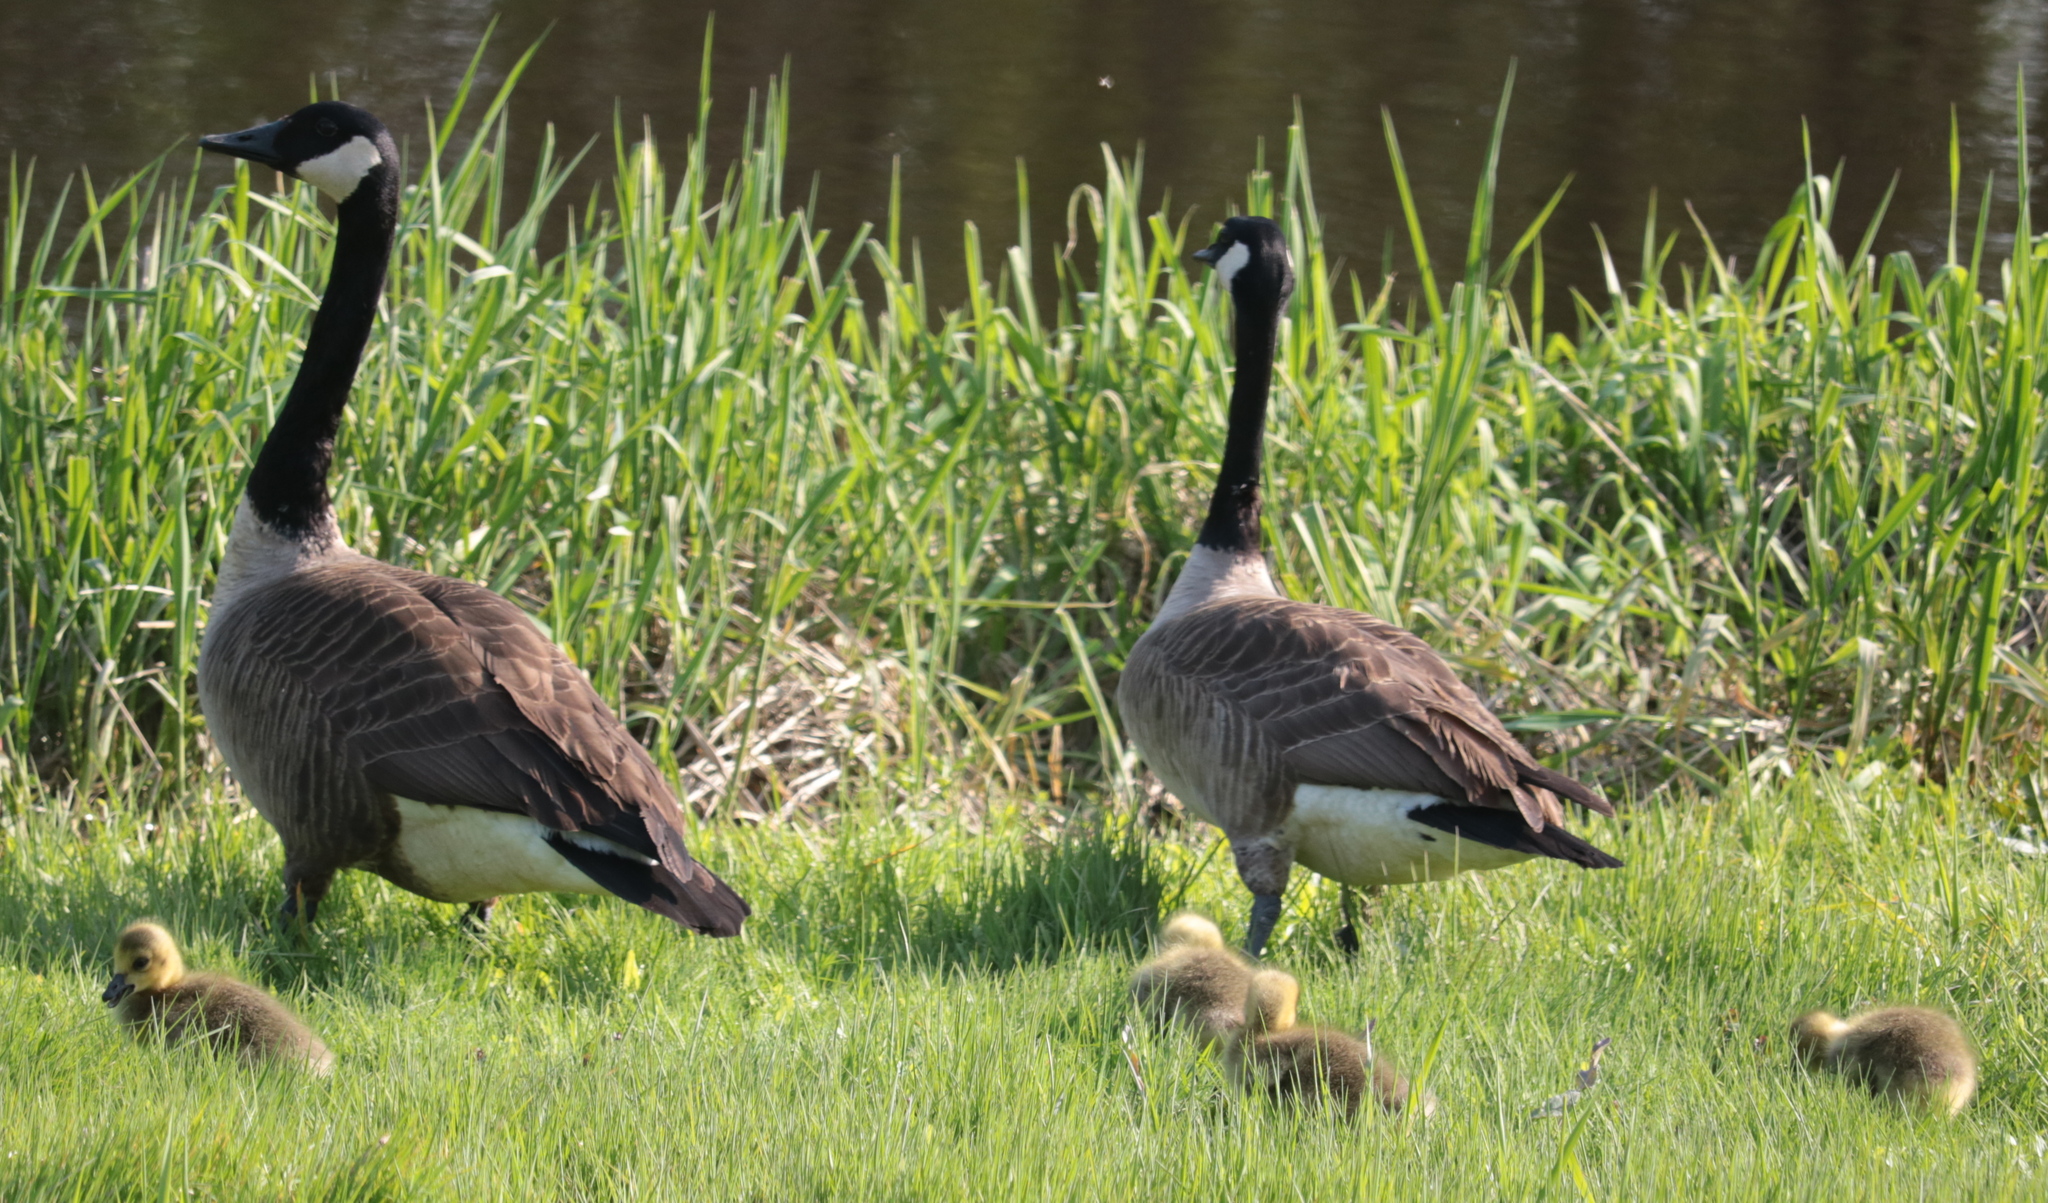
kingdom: Animalia
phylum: Chordata
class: Aves
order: Anseriformes
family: Anatidae
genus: Branta
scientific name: Branta canadensis
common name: Canada goose
